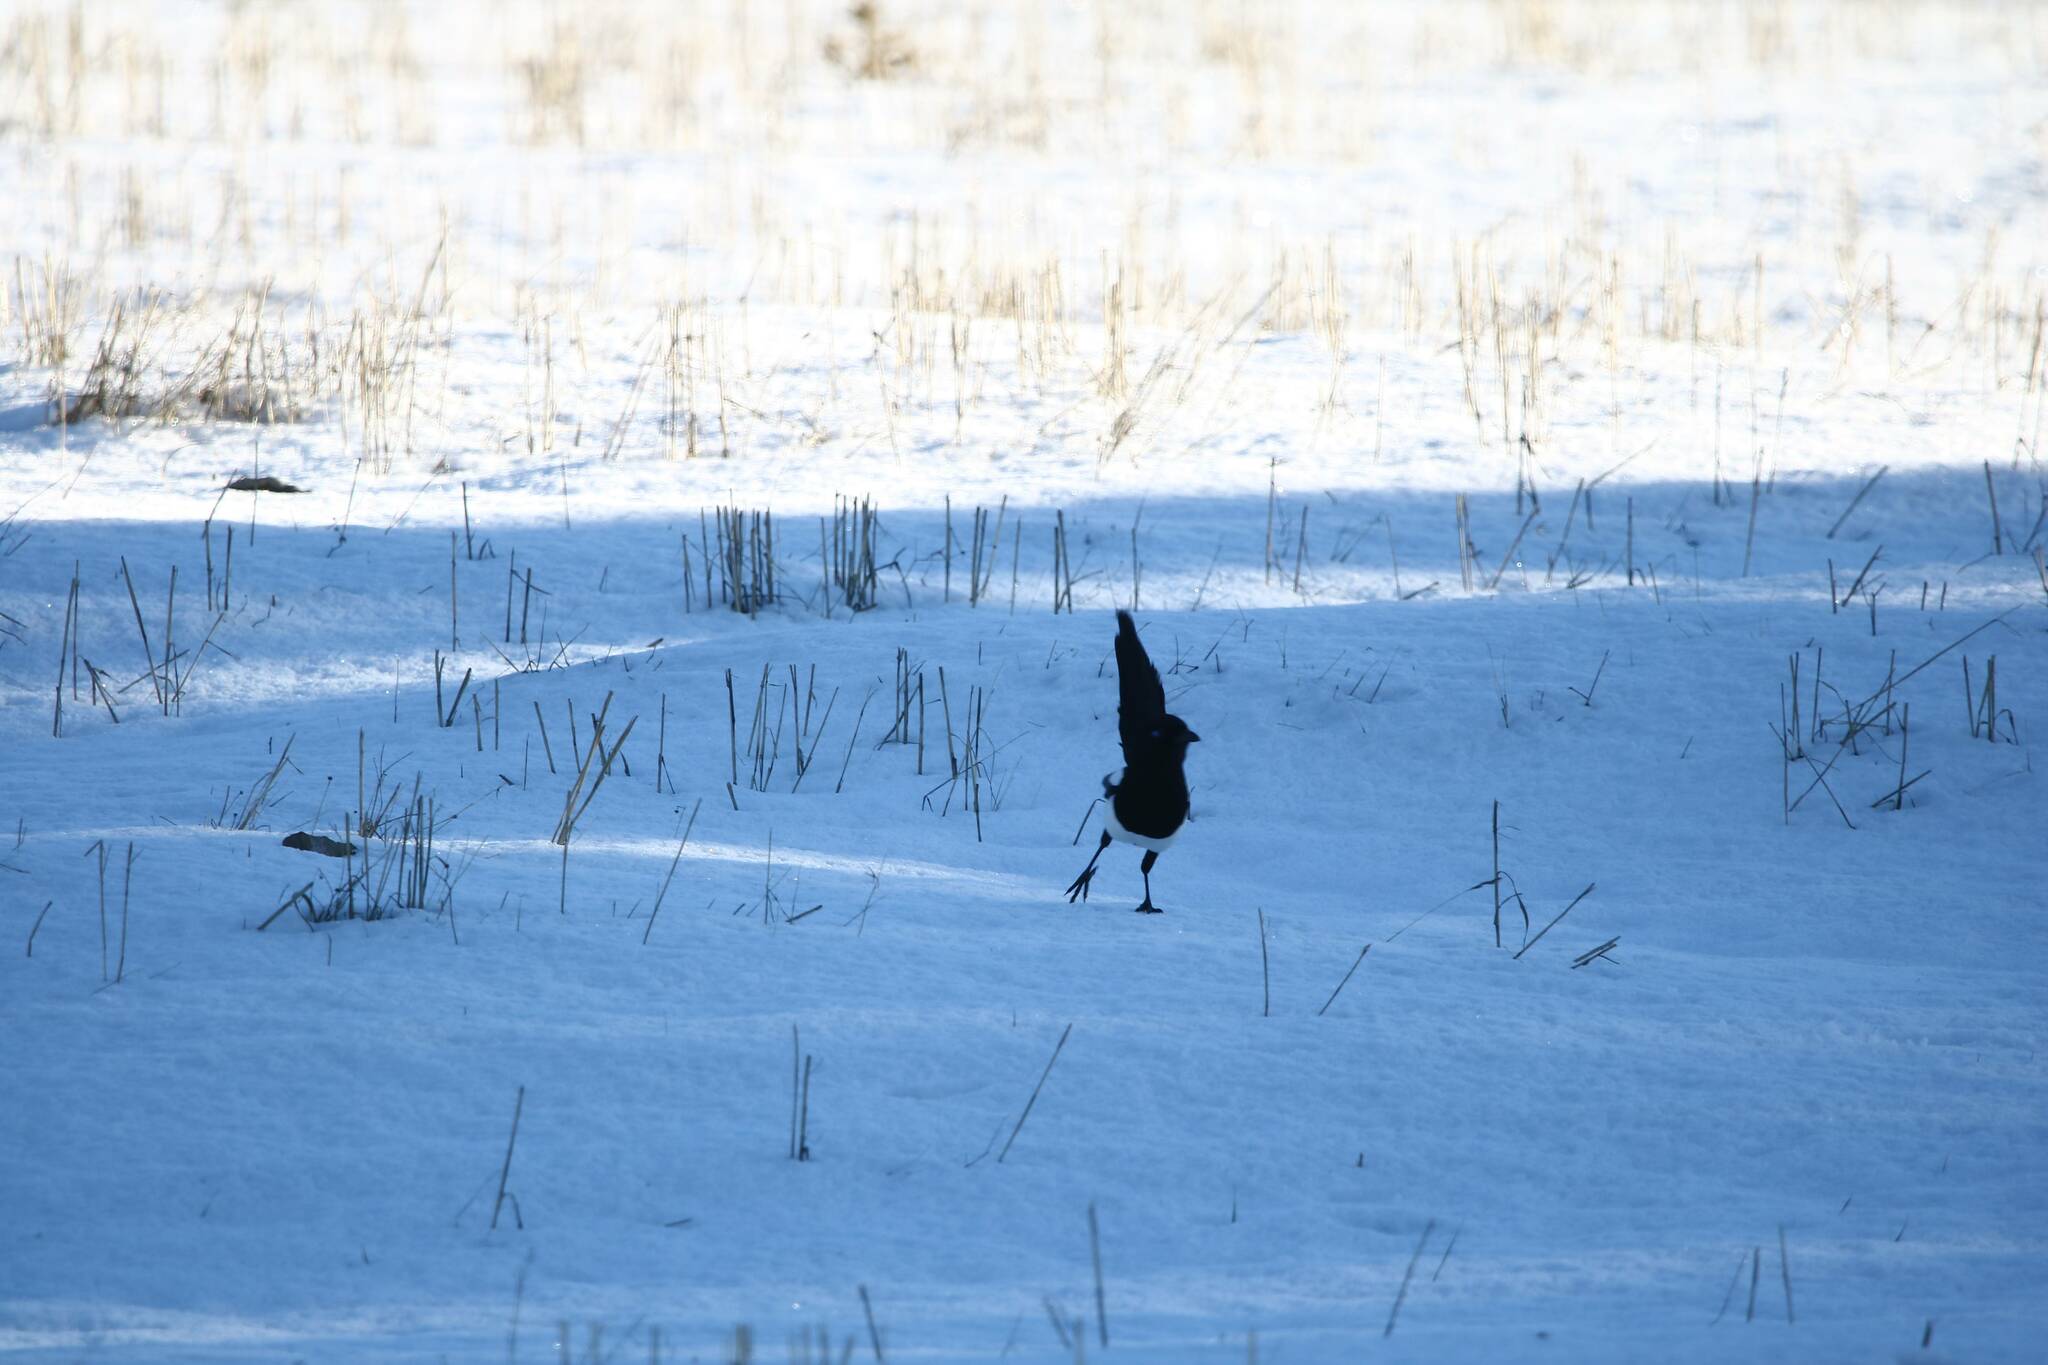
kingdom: Animalia
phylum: Chordata
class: Aves
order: Passeriformes
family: Corvidae
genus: Pica
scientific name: Pica mauritanica
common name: Maghreb magpie
